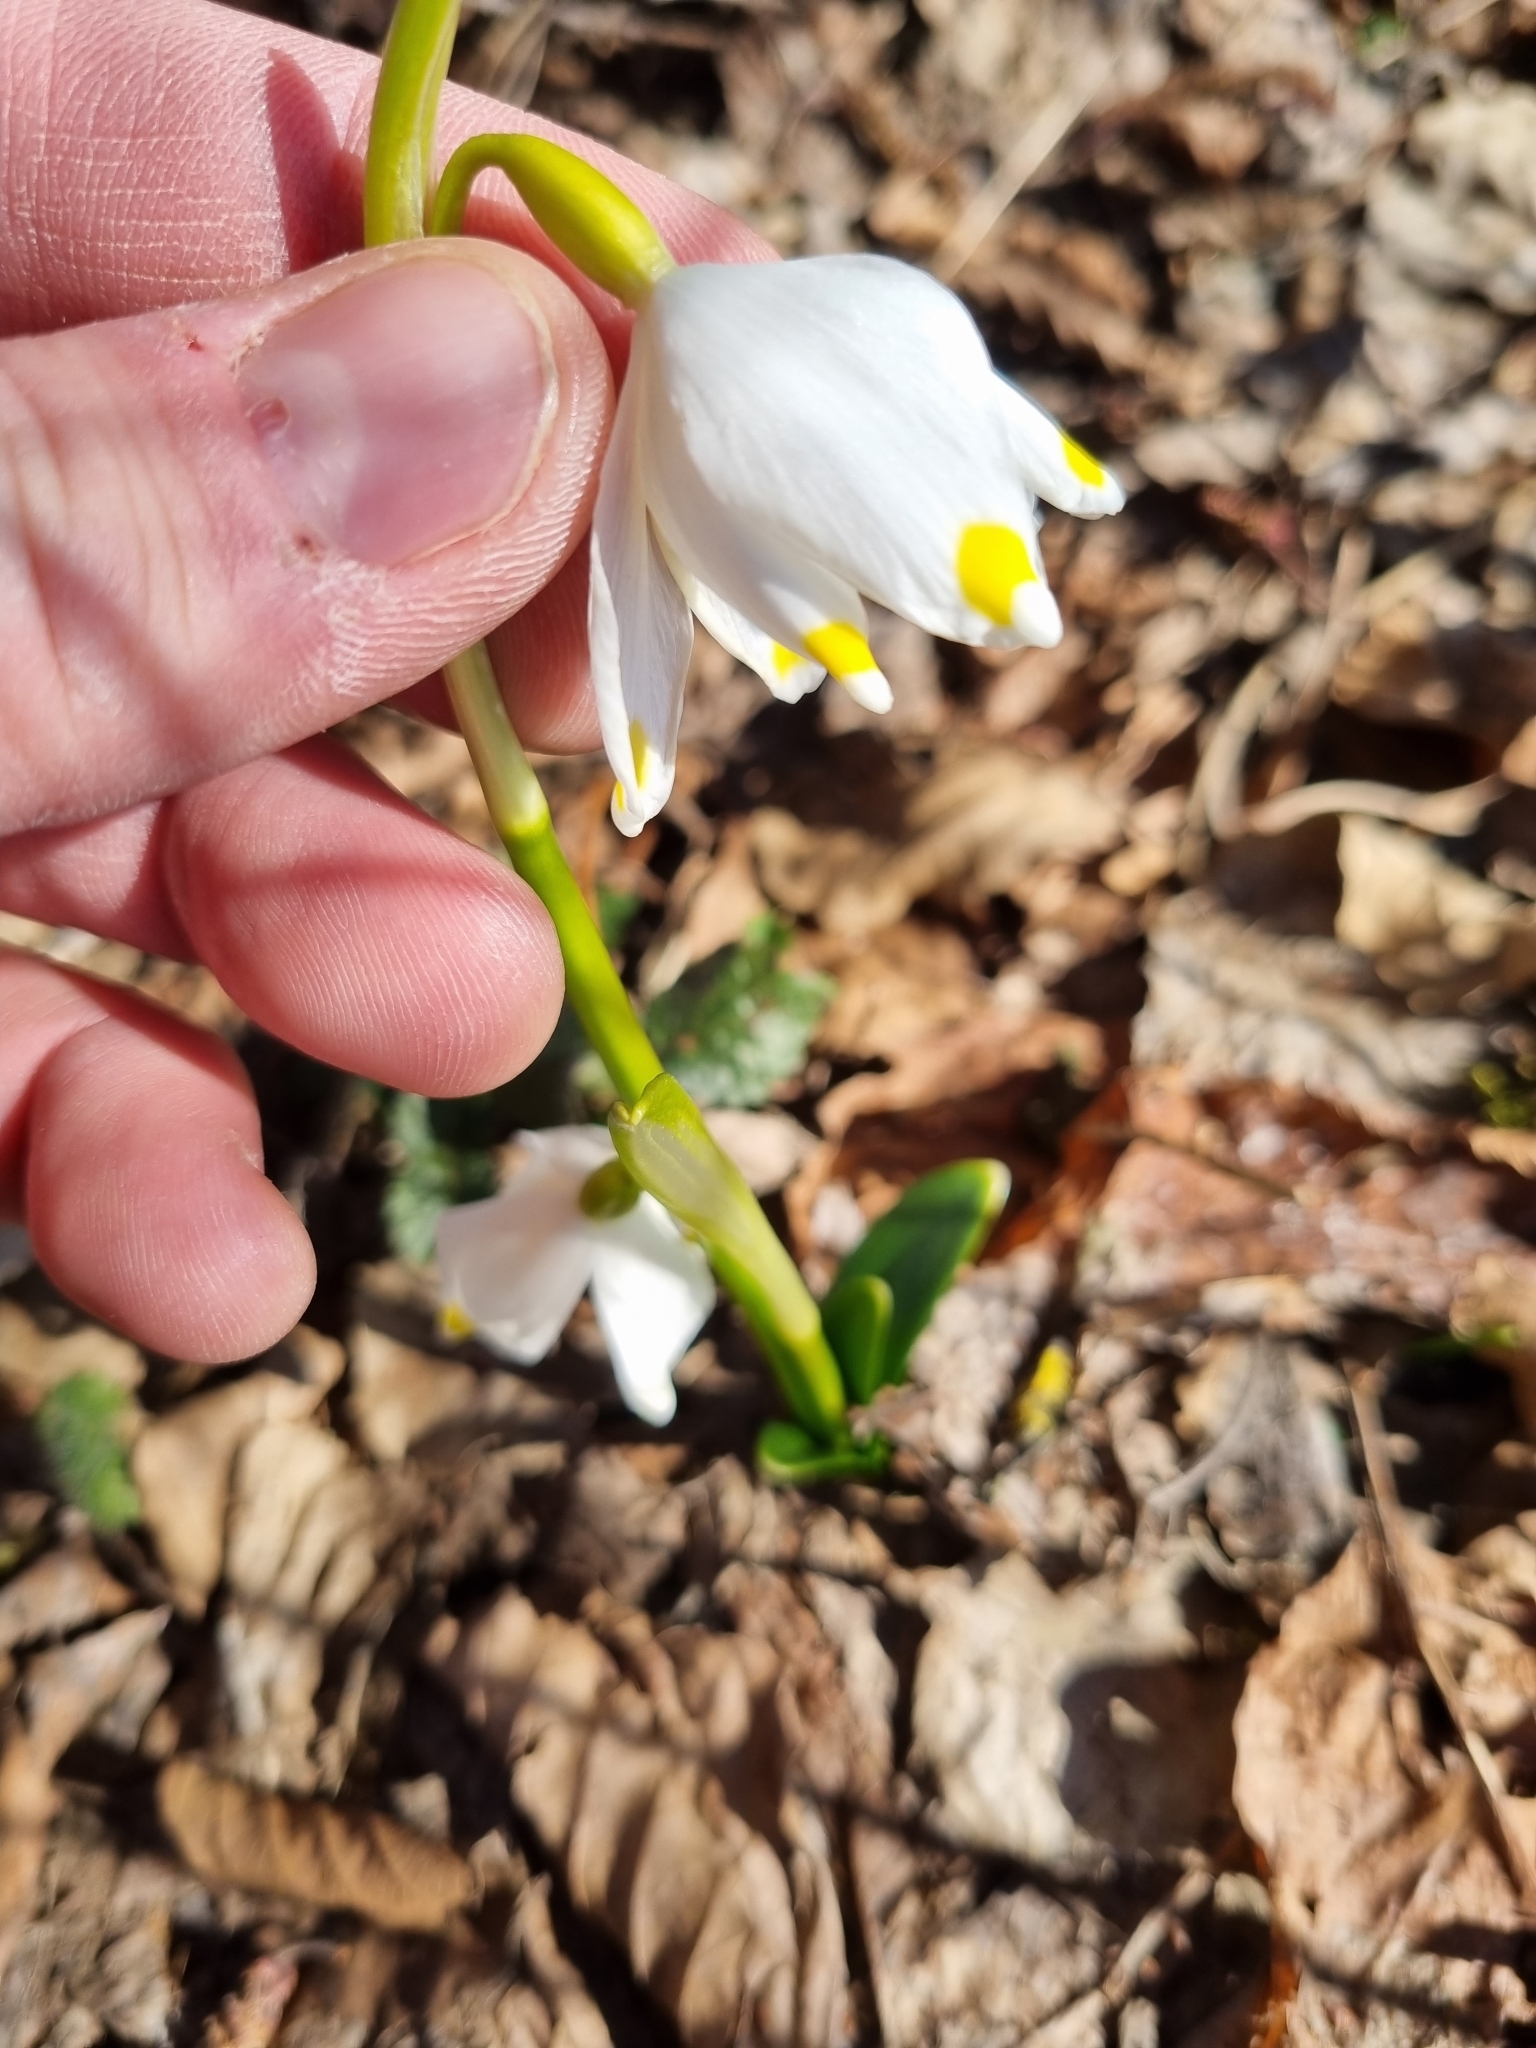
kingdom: Plantae
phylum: Tracheophyta
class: Liliopsida
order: Asparagales
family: Amaryllidaceae
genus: Leucojum
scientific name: Leucojum vernum
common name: Spring snowflake
